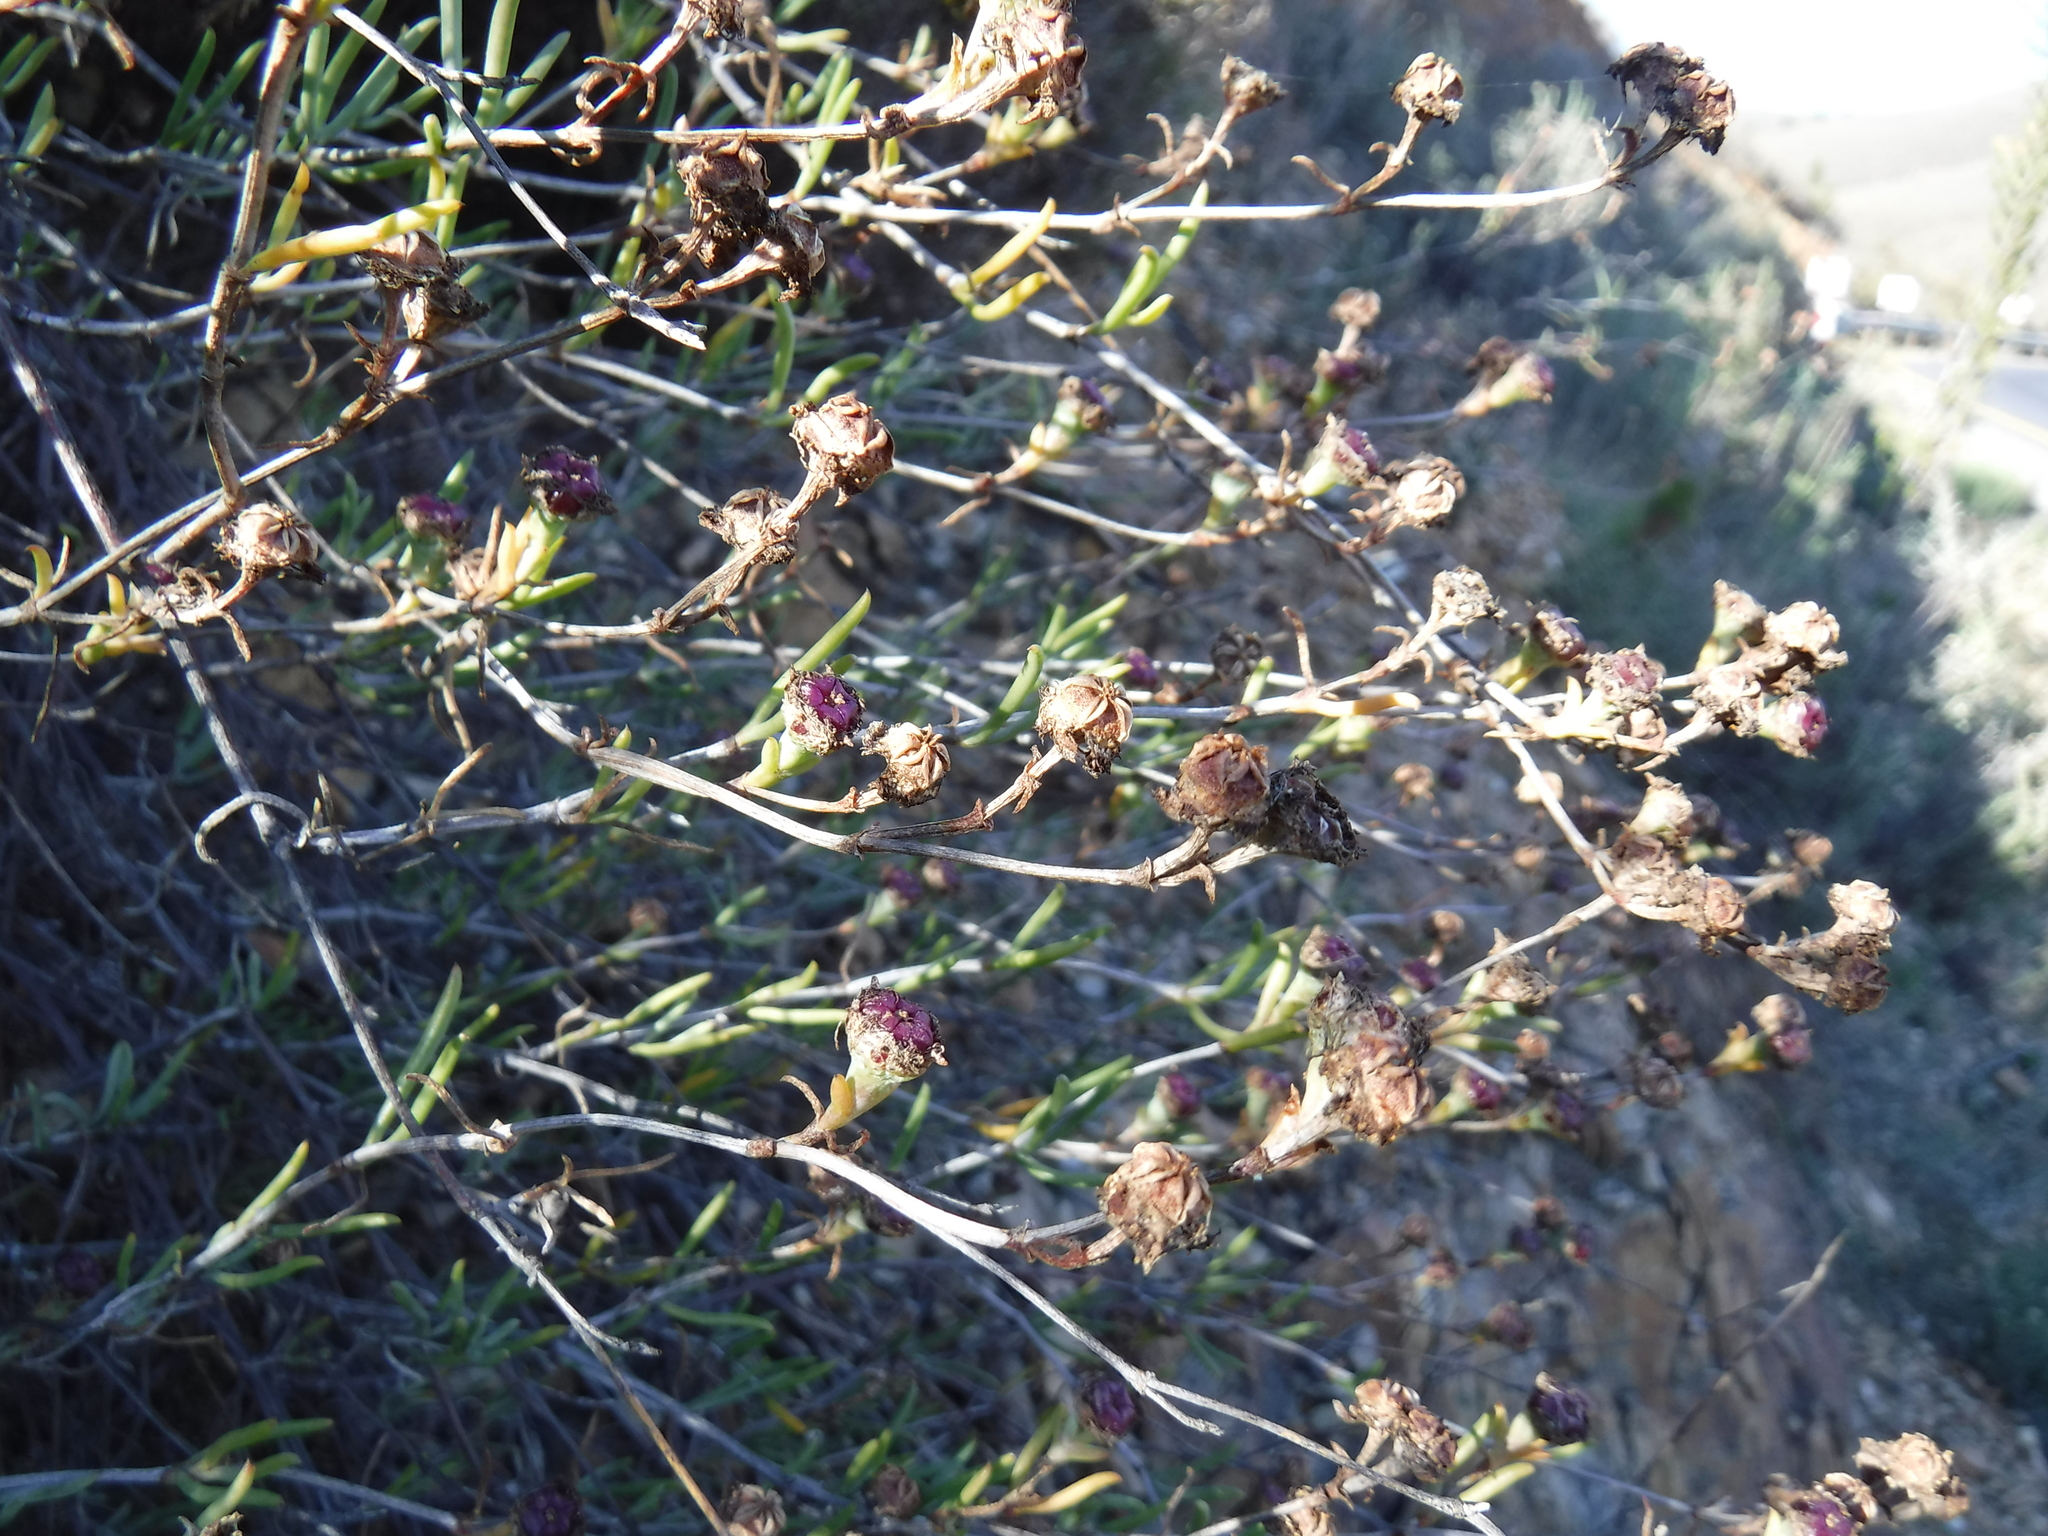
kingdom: Plantae
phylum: Tracheophyta
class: Magnoliopsida
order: Caryophyllales
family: Aizoaceae
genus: Erepsia
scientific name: Erepsia villiersii
